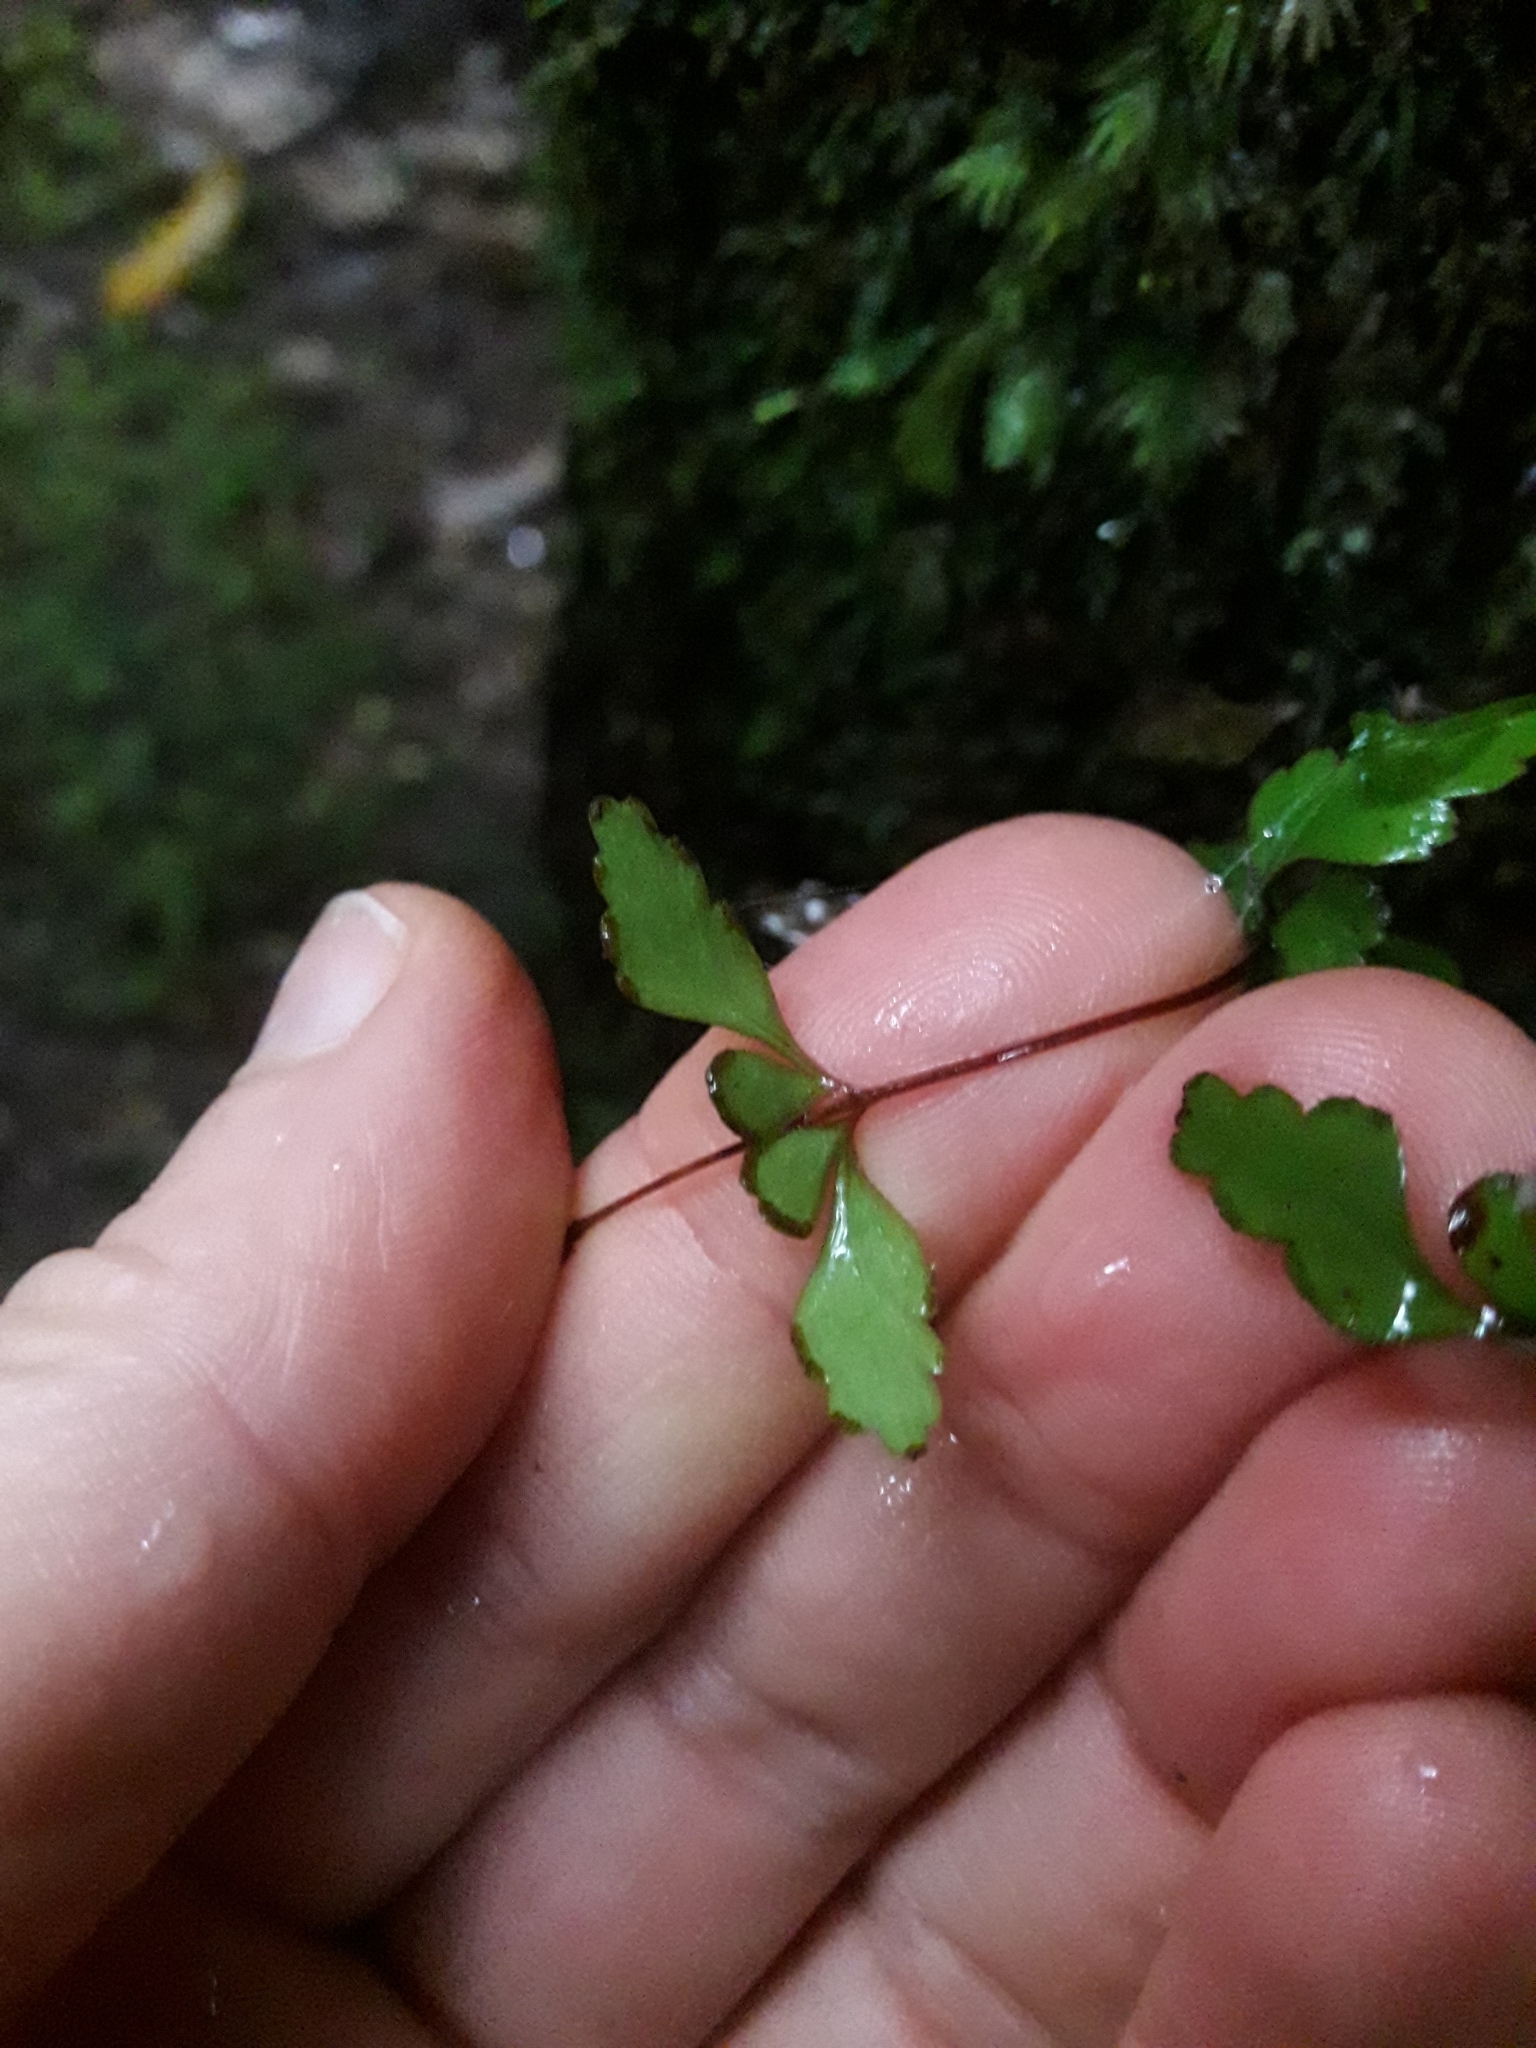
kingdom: Plantae
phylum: Tracheophyta
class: Polypodiopsida
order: Polypodiales
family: Lindsaeaceae
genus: Lindsaea
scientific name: Lindsaea trichomanoides
